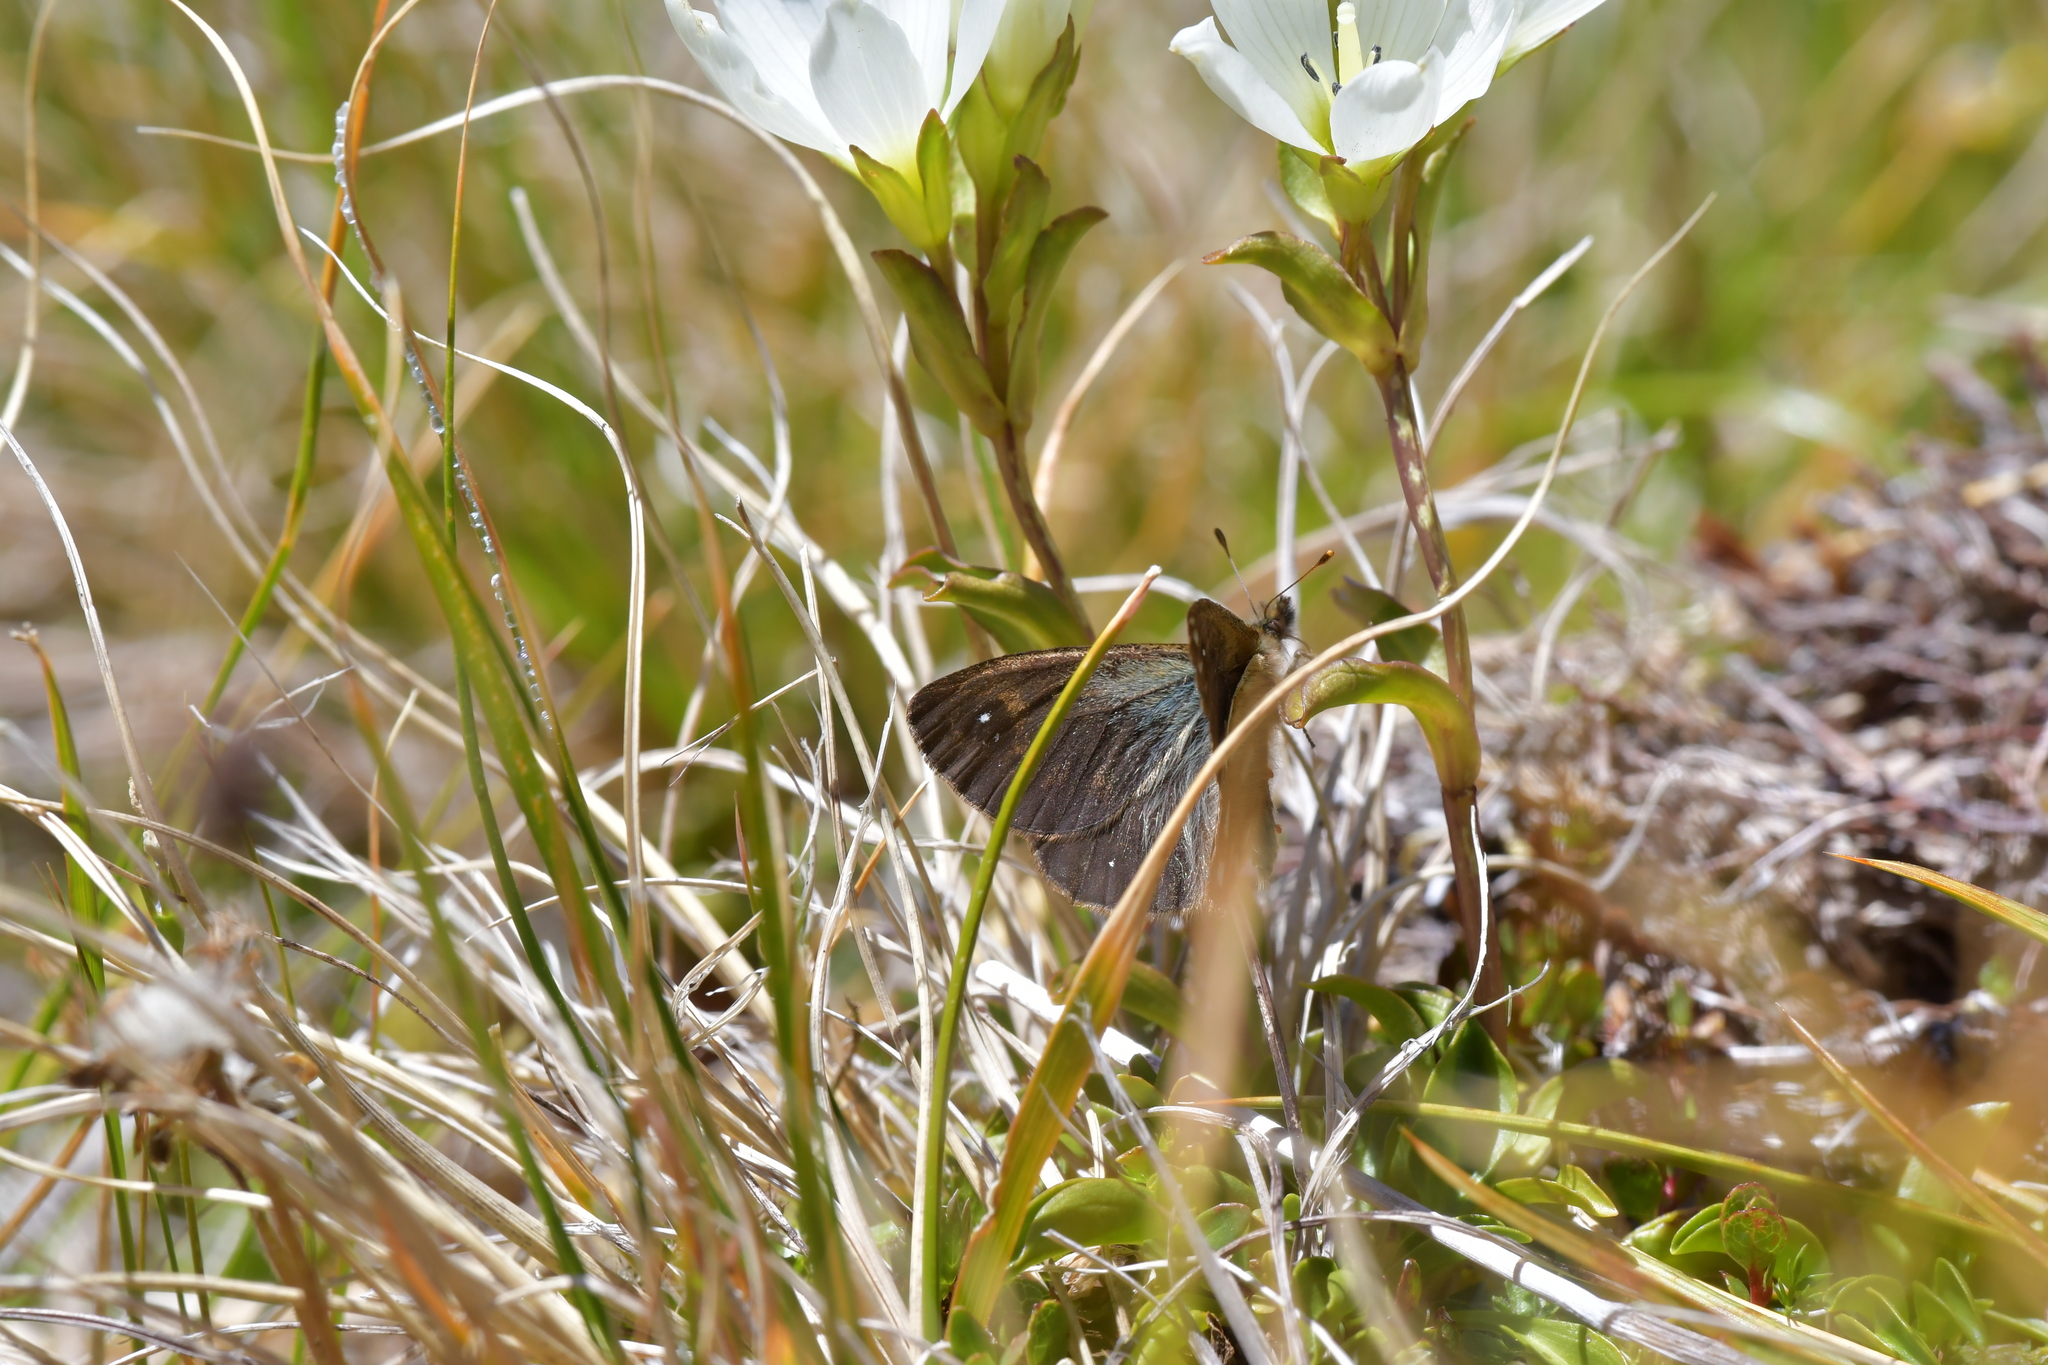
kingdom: Animalia
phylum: Arthropoda
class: Insecta
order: Lepidoptera
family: Nymphalidae
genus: Erebiola
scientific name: Erebiola butleri
